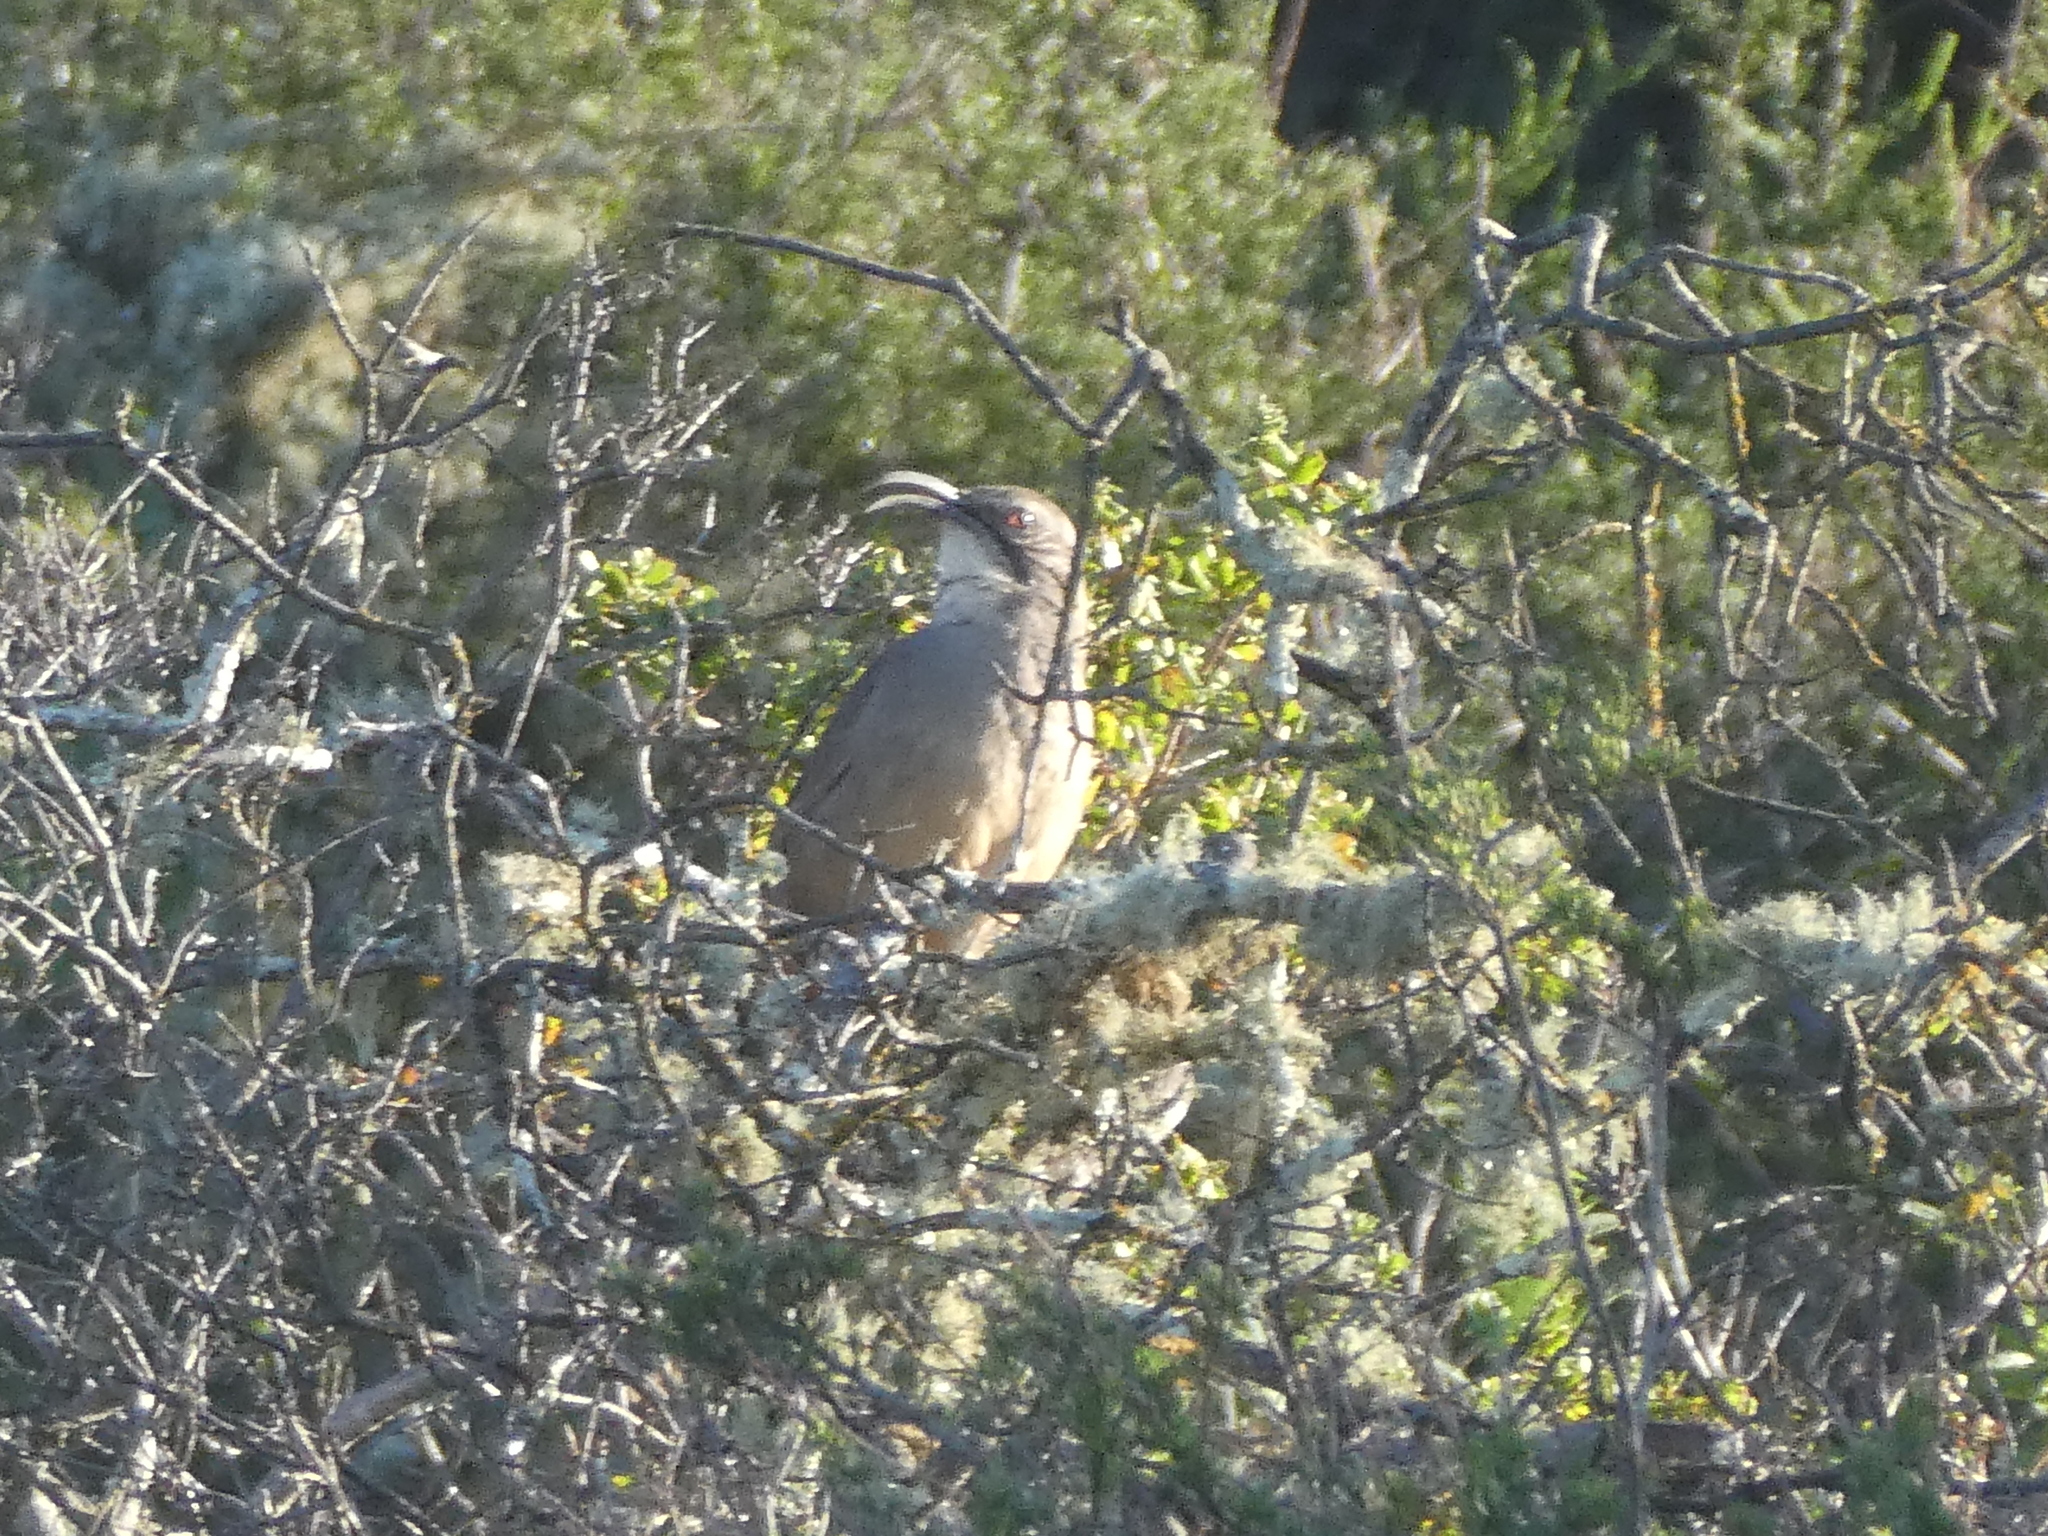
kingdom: Animalia
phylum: Chordata
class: Aves
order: Passeriformes
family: Mimidae
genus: Toxostoma
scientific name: Toxostoma redivivum
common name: California thrasher
